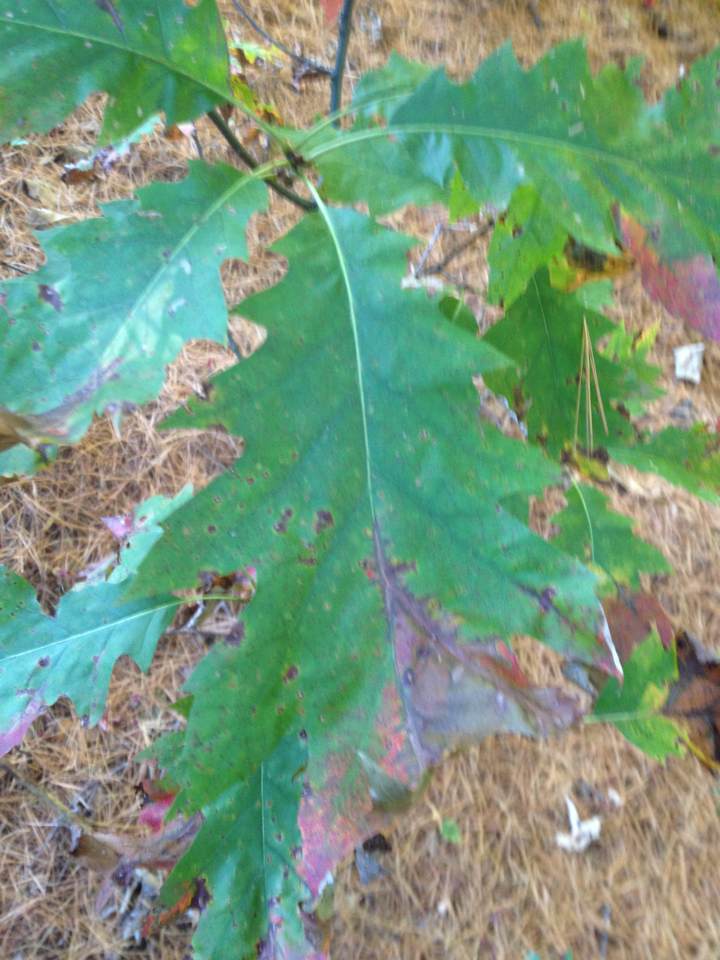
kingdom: Plantae
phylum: Tracheophyta
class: Magnoliopsida
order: Fagales
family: Fagaceae
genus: Quercus
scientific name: Quercus rubra
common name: Red oak
